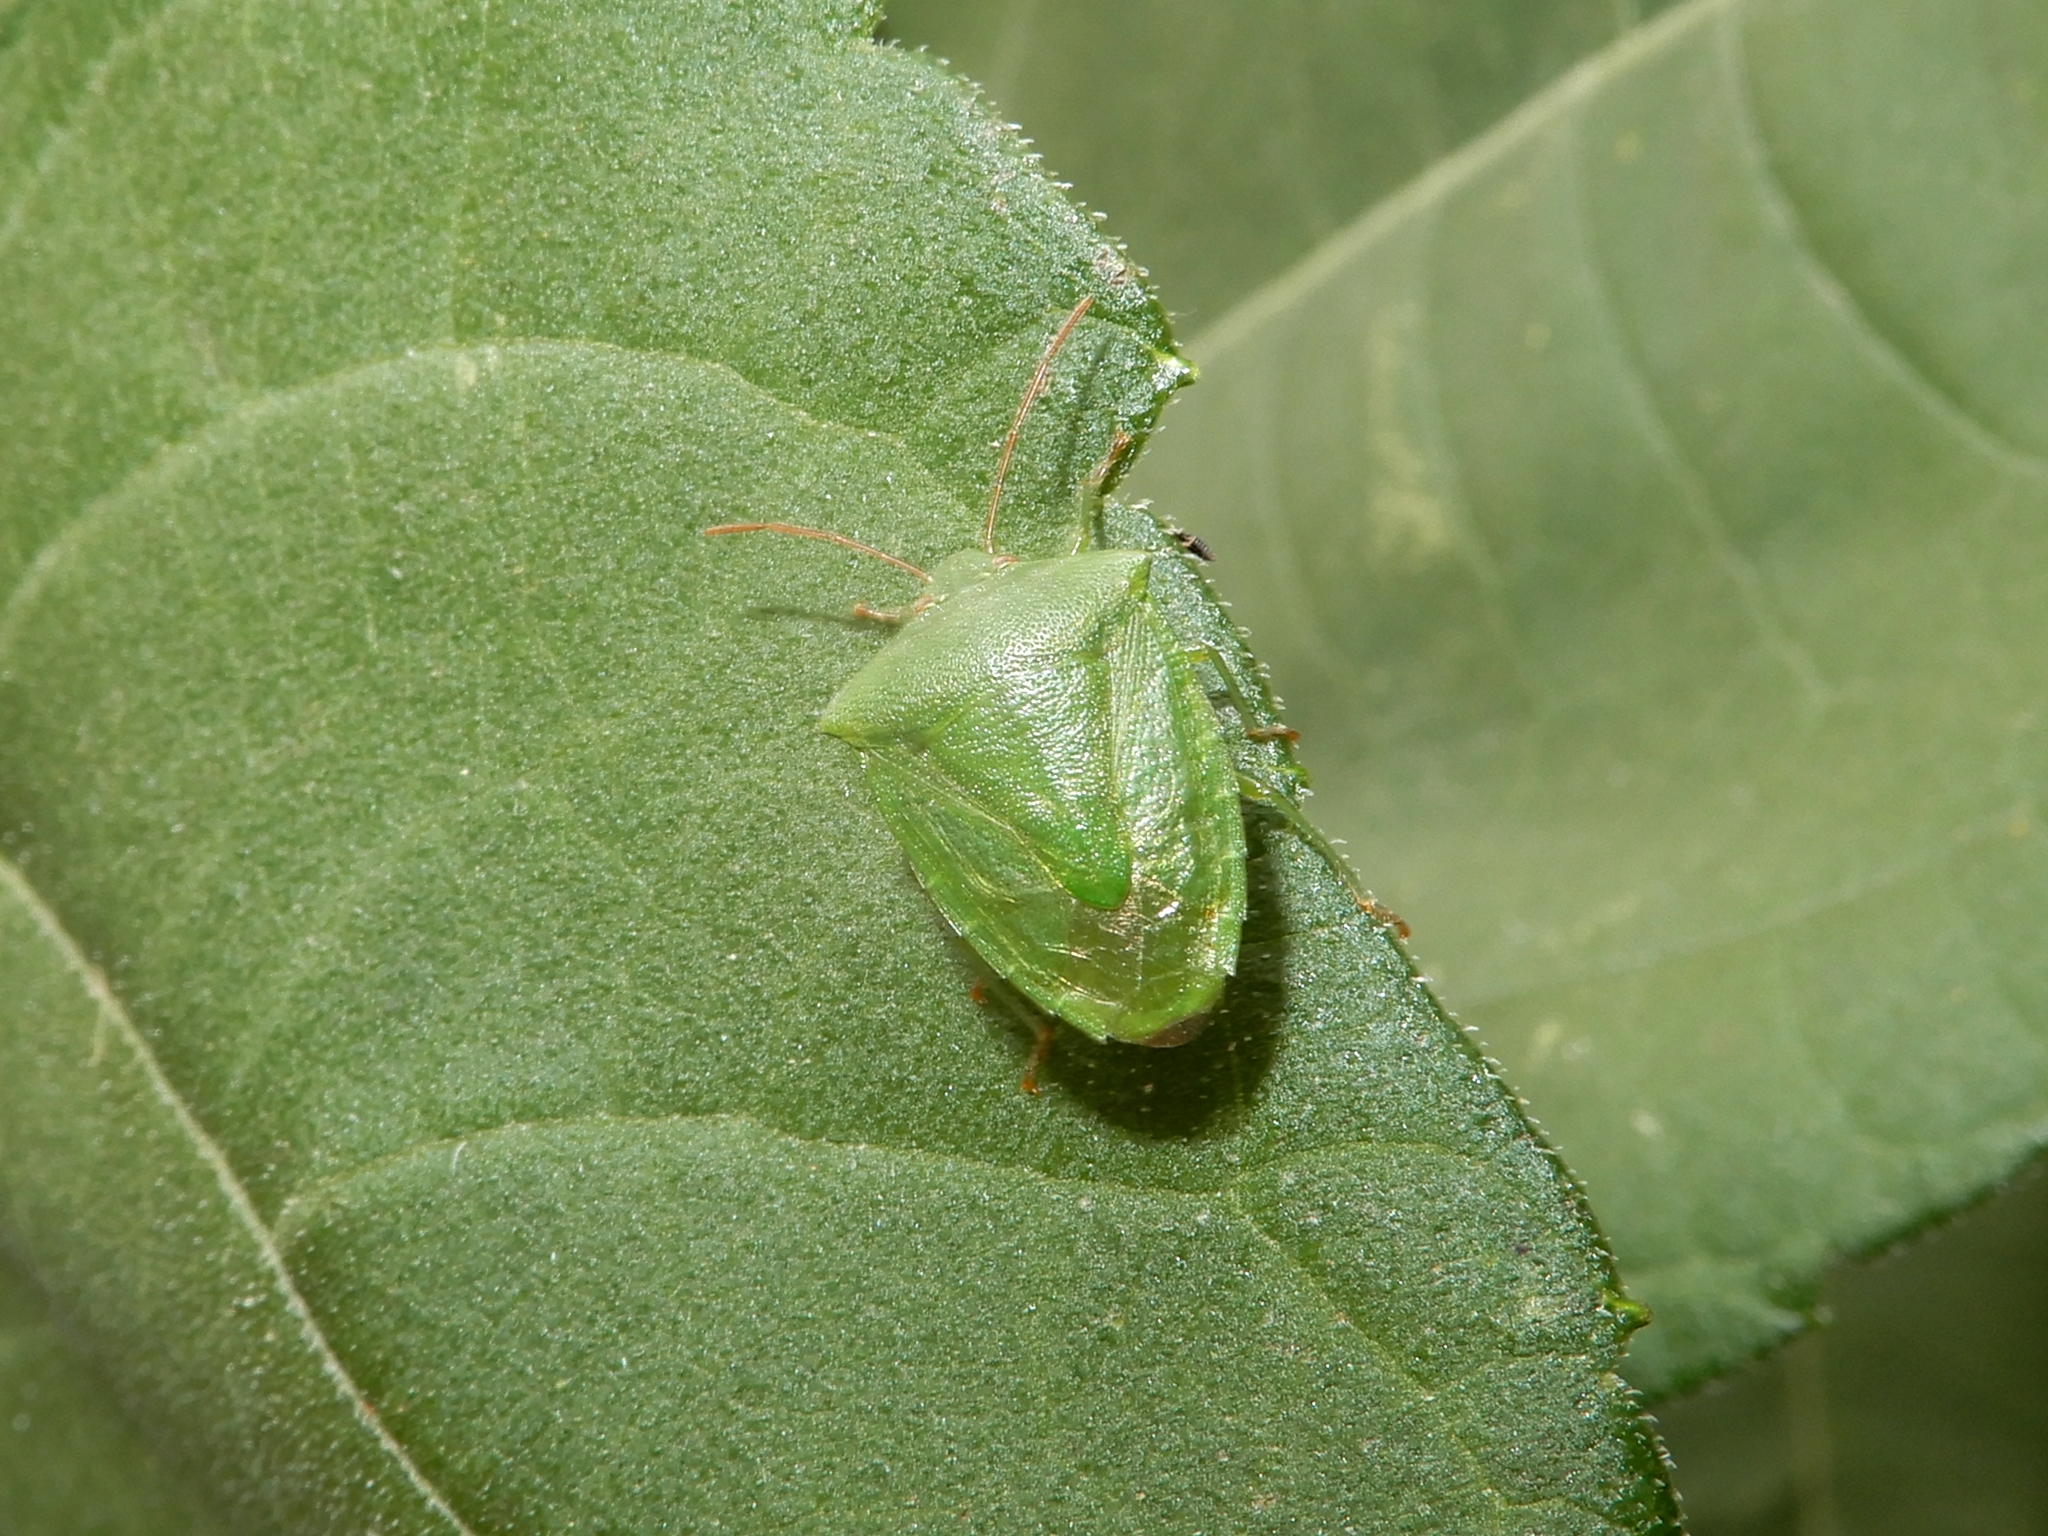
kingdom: Animalia
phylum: Arthropoda
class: Insecta
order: Hemiptera
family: Pentatomidae
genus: Cuspicona
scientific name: Cuspicona simplex
